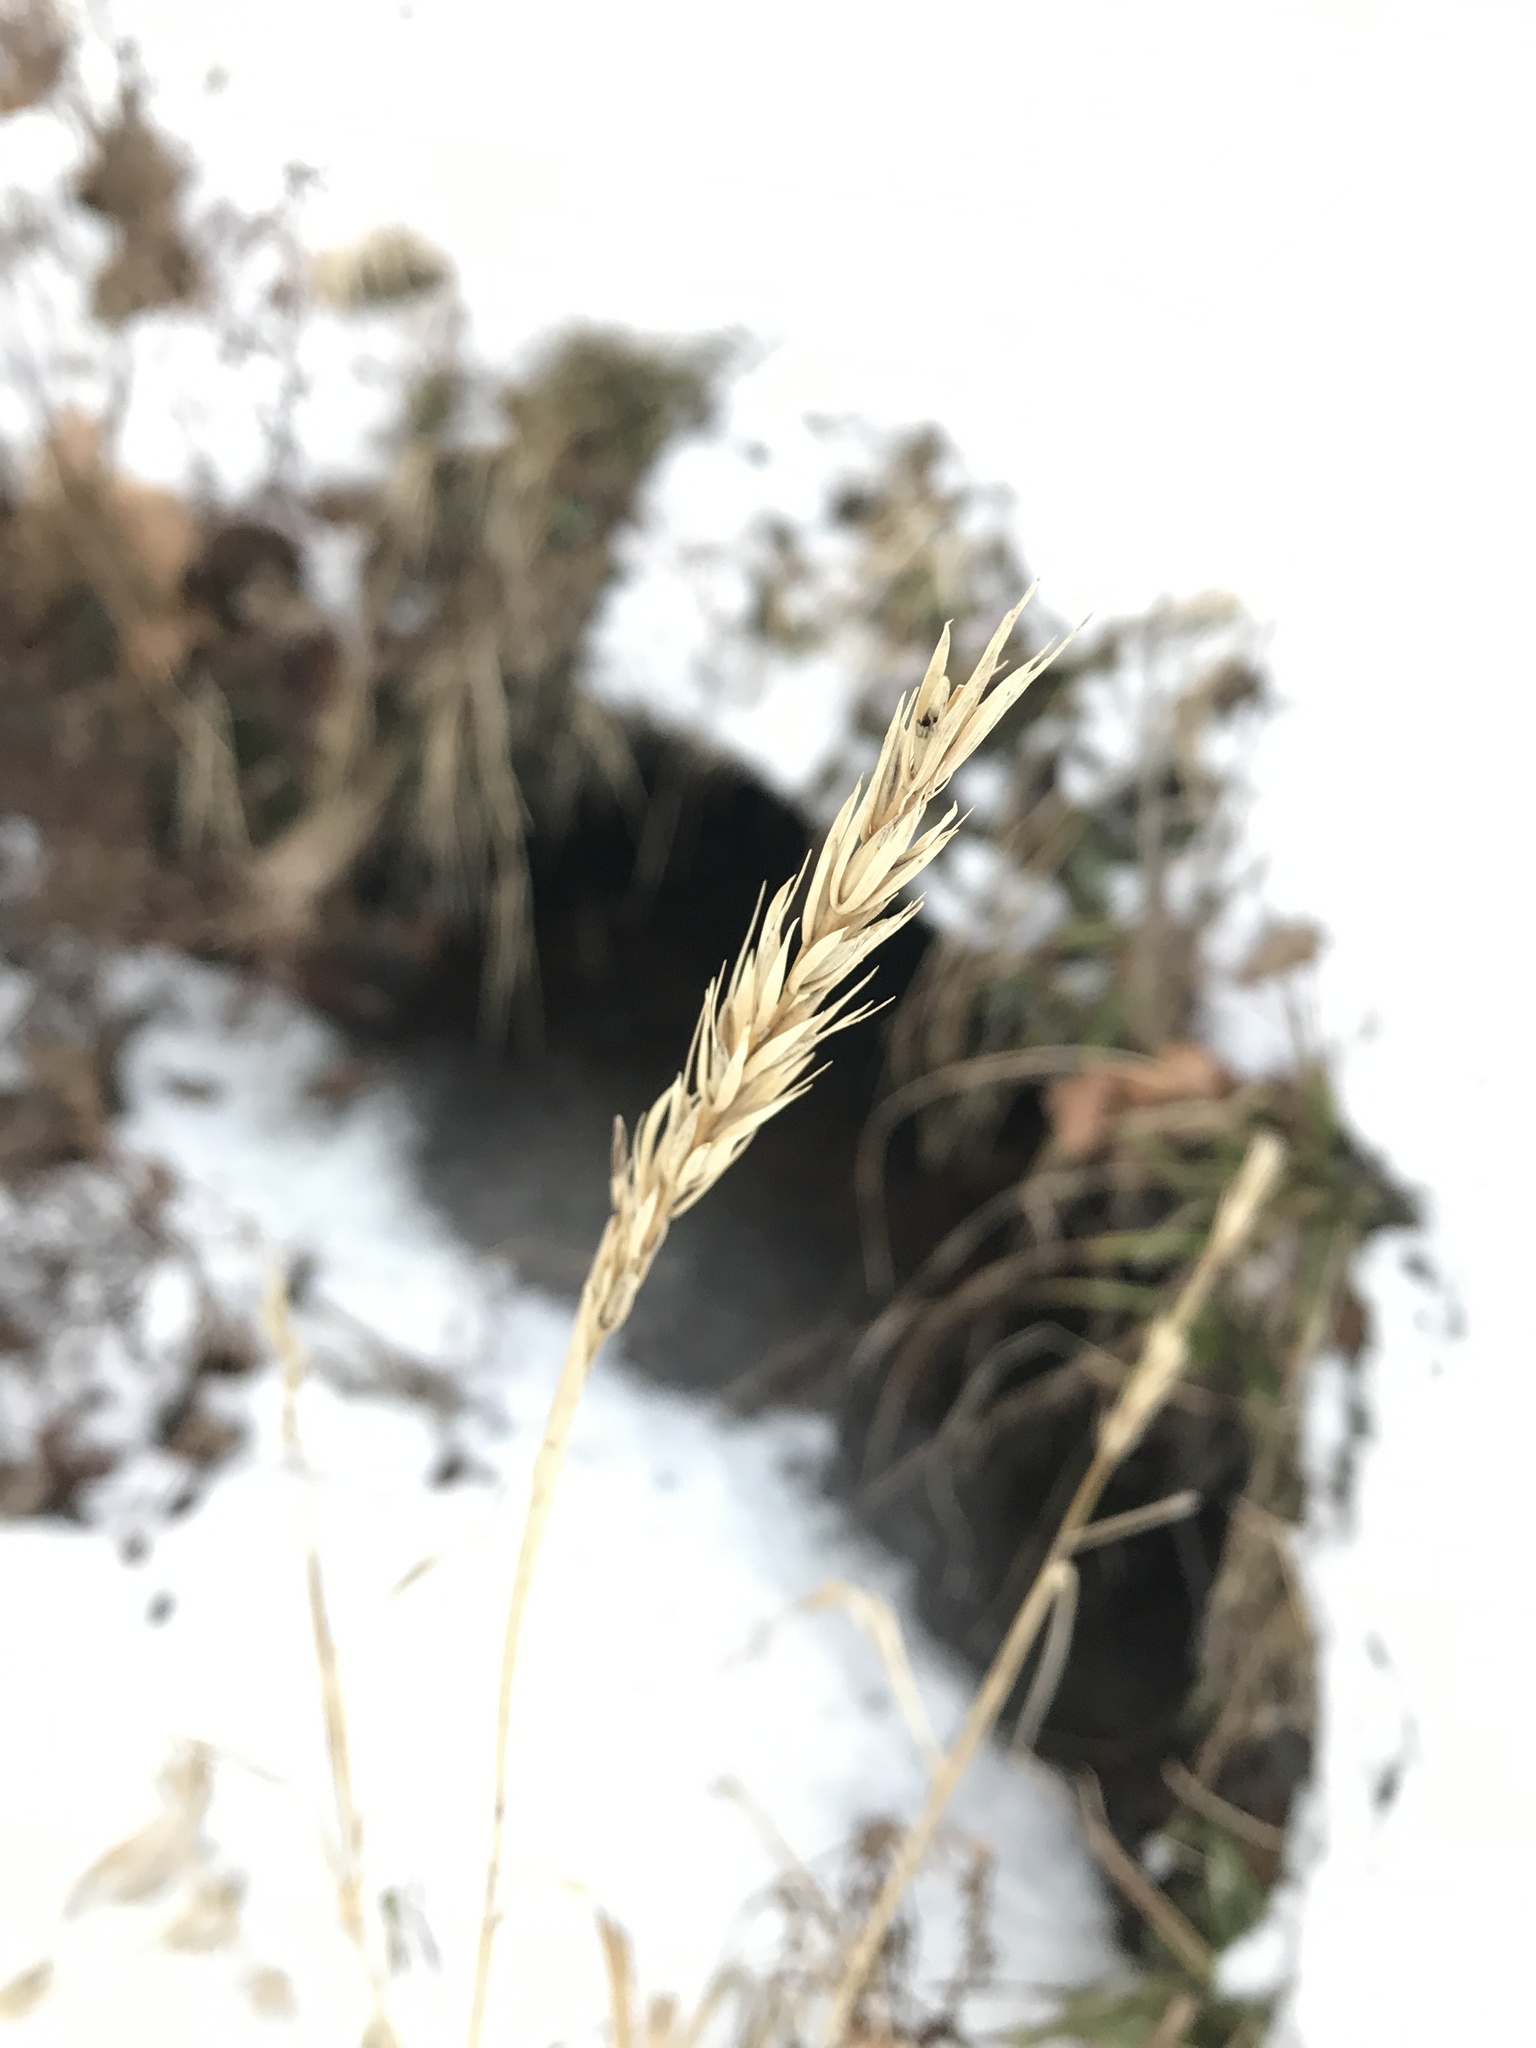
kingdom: Plantae
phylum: Tracheophyta
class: Liliopsida
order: Poales
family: Poaceae
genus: Elymus
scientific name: Elymus virginicus
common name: Common eastern wildrye
